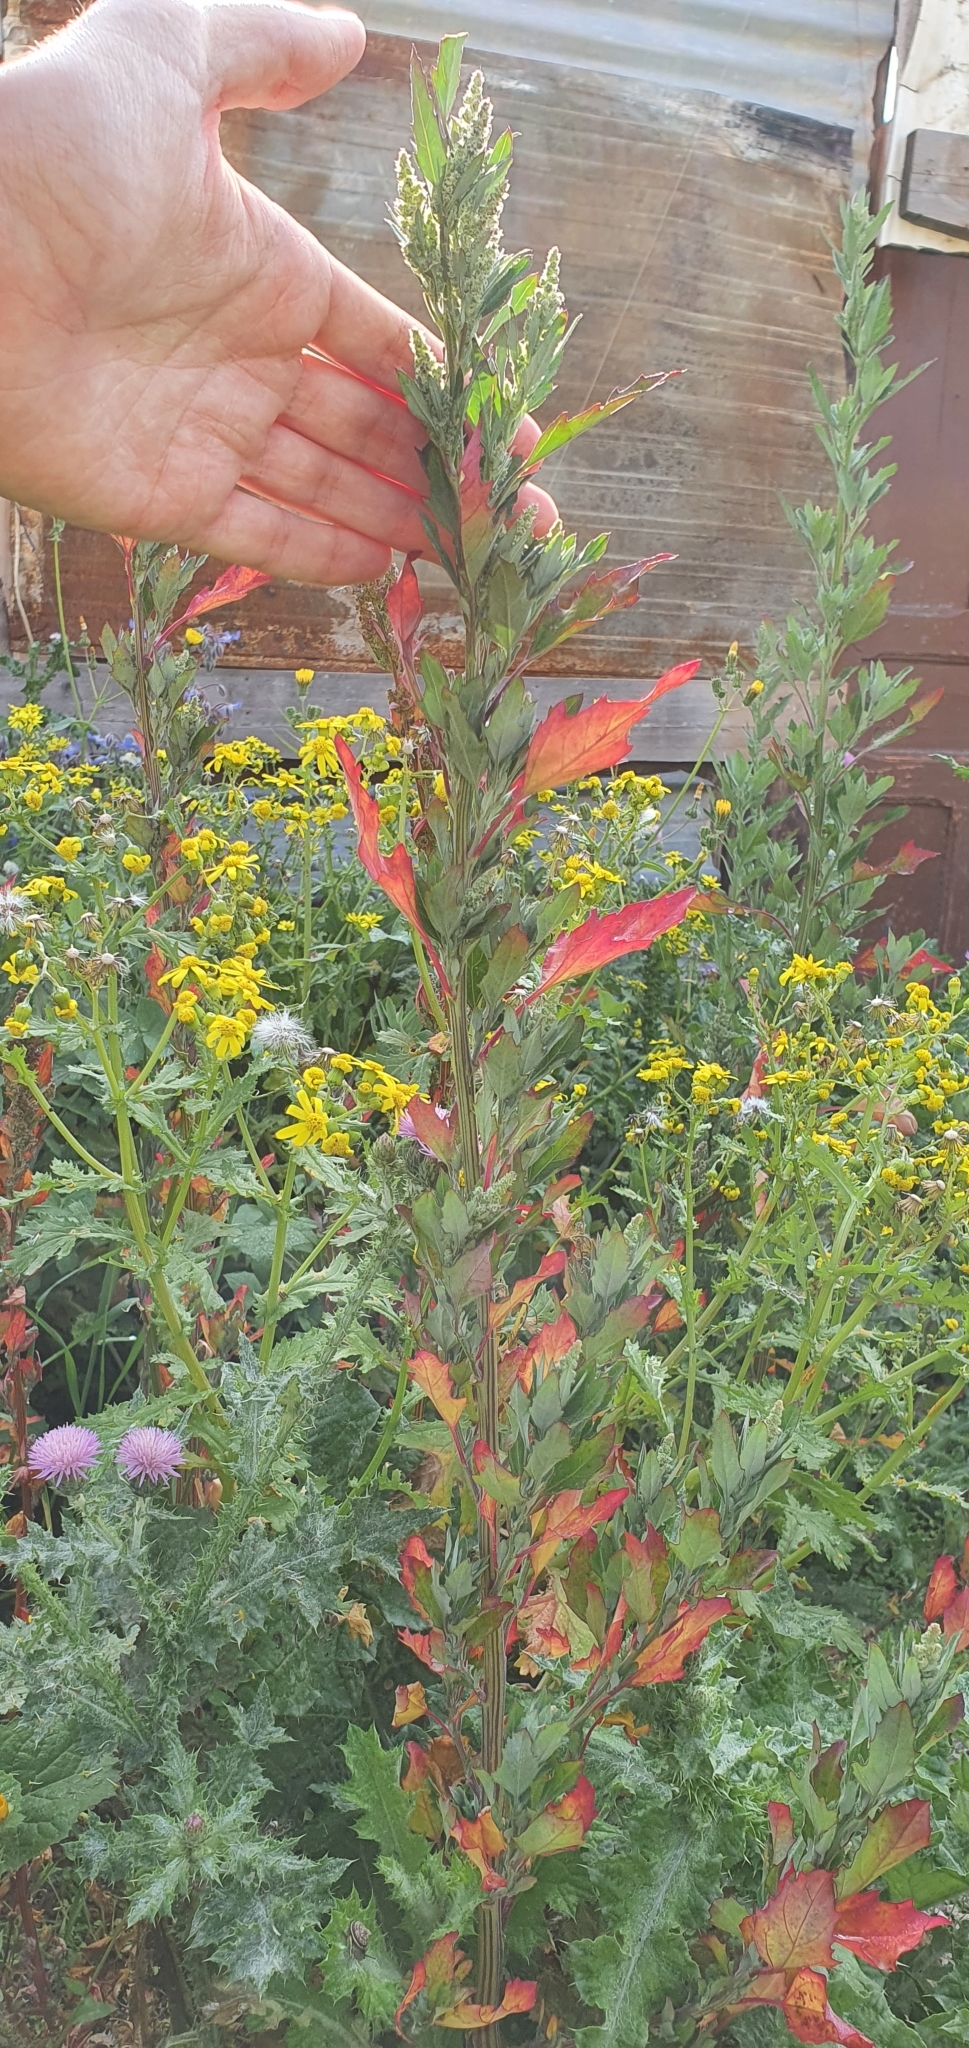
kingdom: Plantae
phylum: Tracheophyta
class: Magnoliopsida
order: Caryophyllales
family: Amaranthaceae
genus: Chenopodium
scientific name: Chenopodium album
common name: Fat-hen
